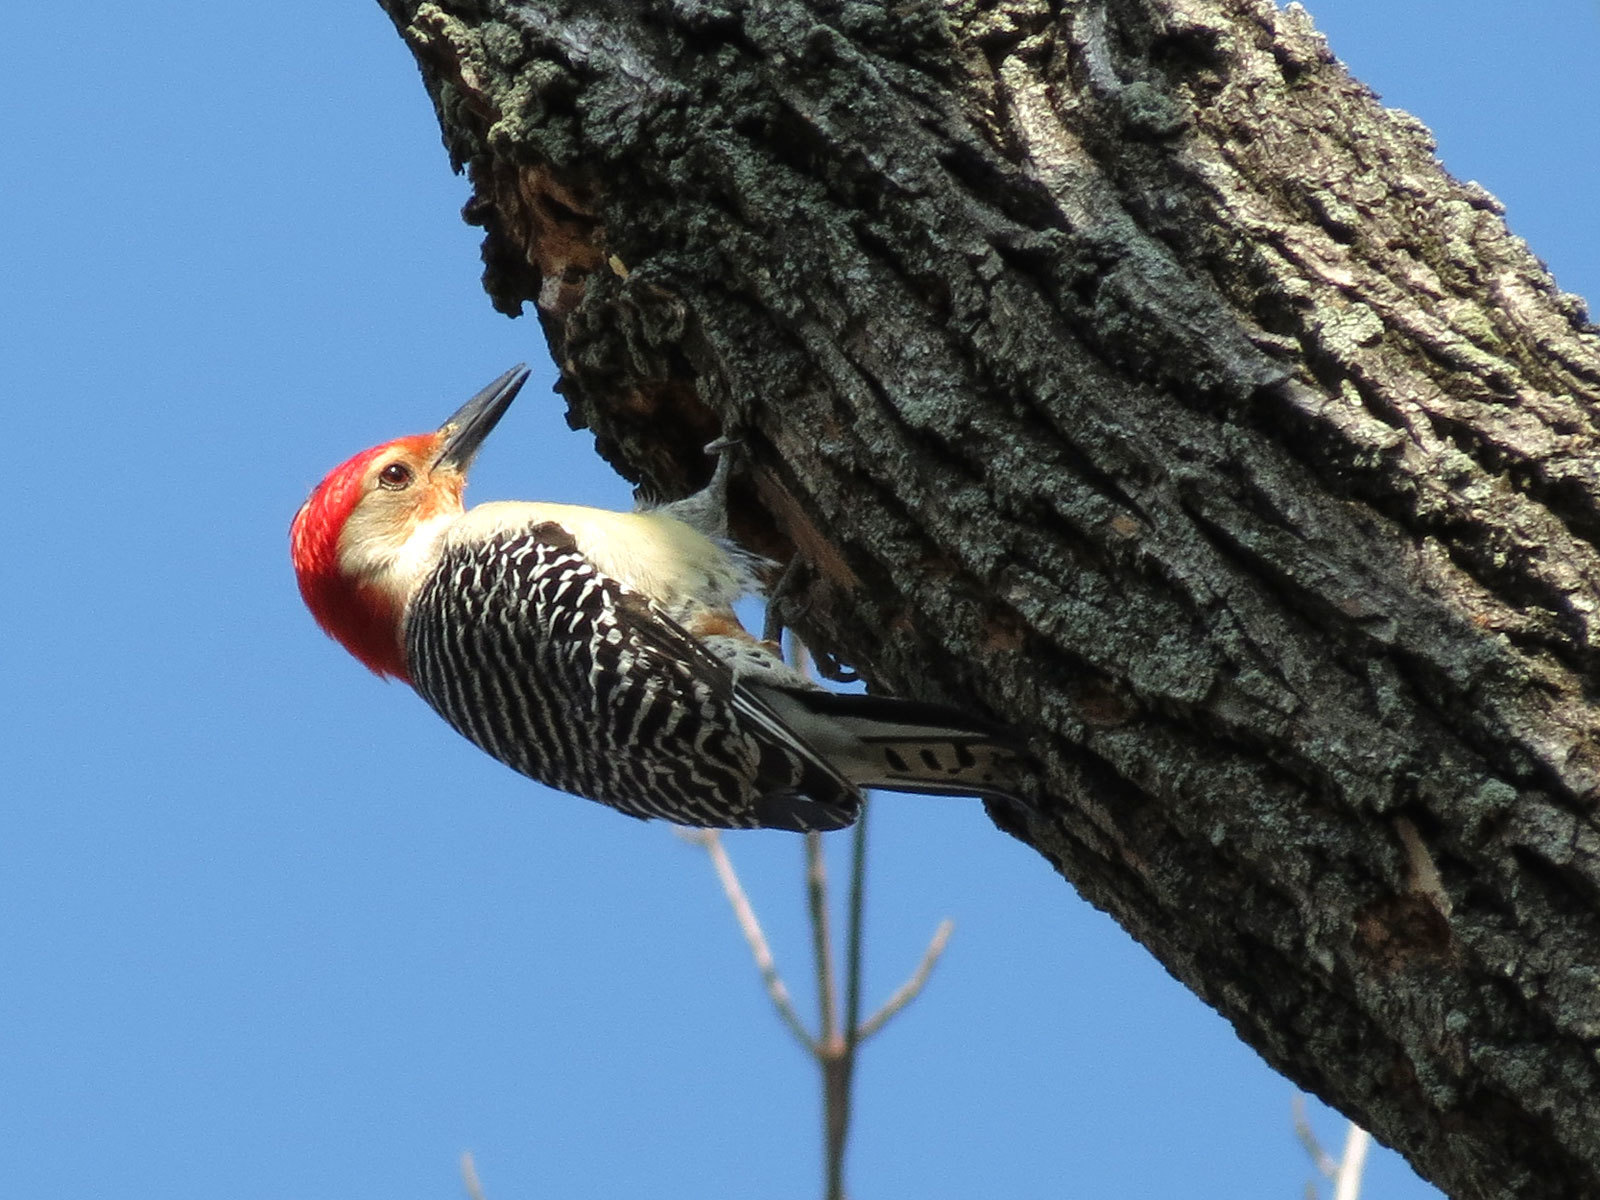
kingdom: Animalia
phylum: Chordata
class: Aves
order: Piciformes
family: Picidae
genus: Melanerpes
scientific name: Melanerpes carolinus
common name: Red-bellied woodpecker
